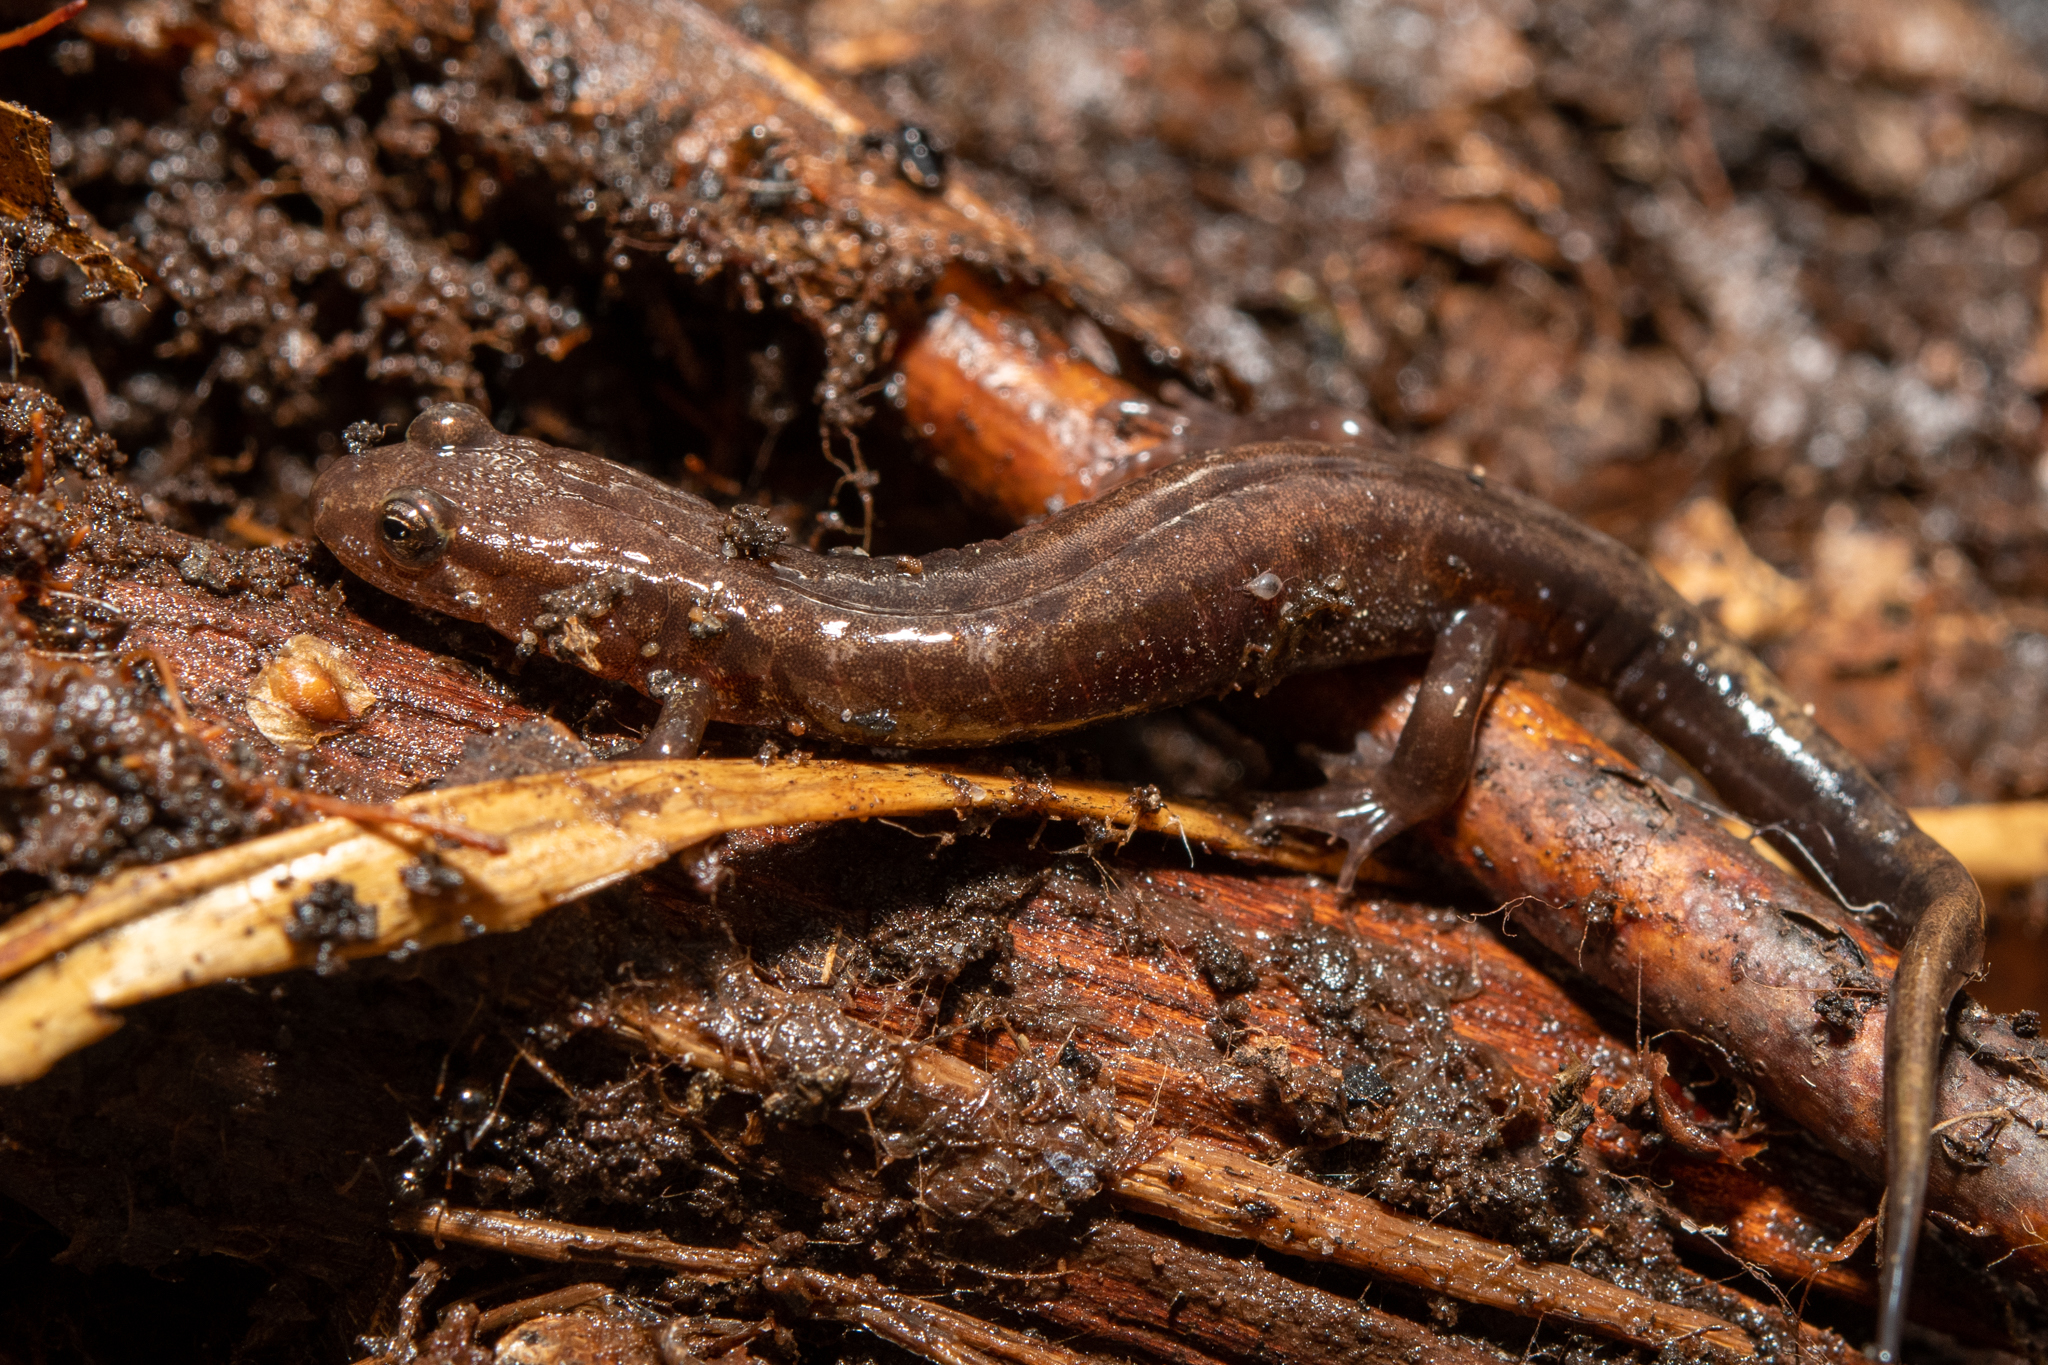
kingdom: Animalia
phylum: Chordata
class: Amphibia
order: Caudata
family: Plethodontidae
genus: Desmognathus
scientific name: Desmognathus ochrophaeus
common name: Allegheny mountain dusky salamander
